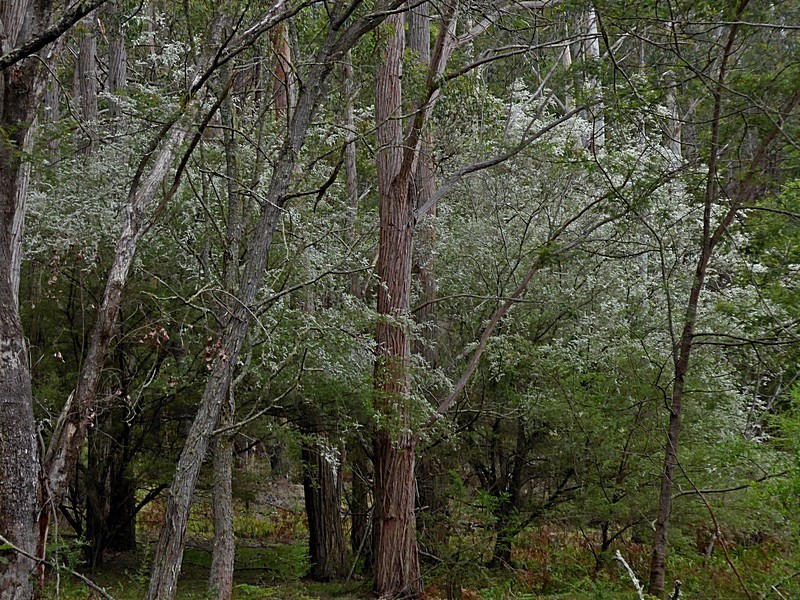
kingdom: Plantae
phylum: Tracheophyta
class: Magnoliopsida
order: Myrtales
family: Myrtaceae
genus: Leptospermum
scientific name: Leptospermum brevipes
